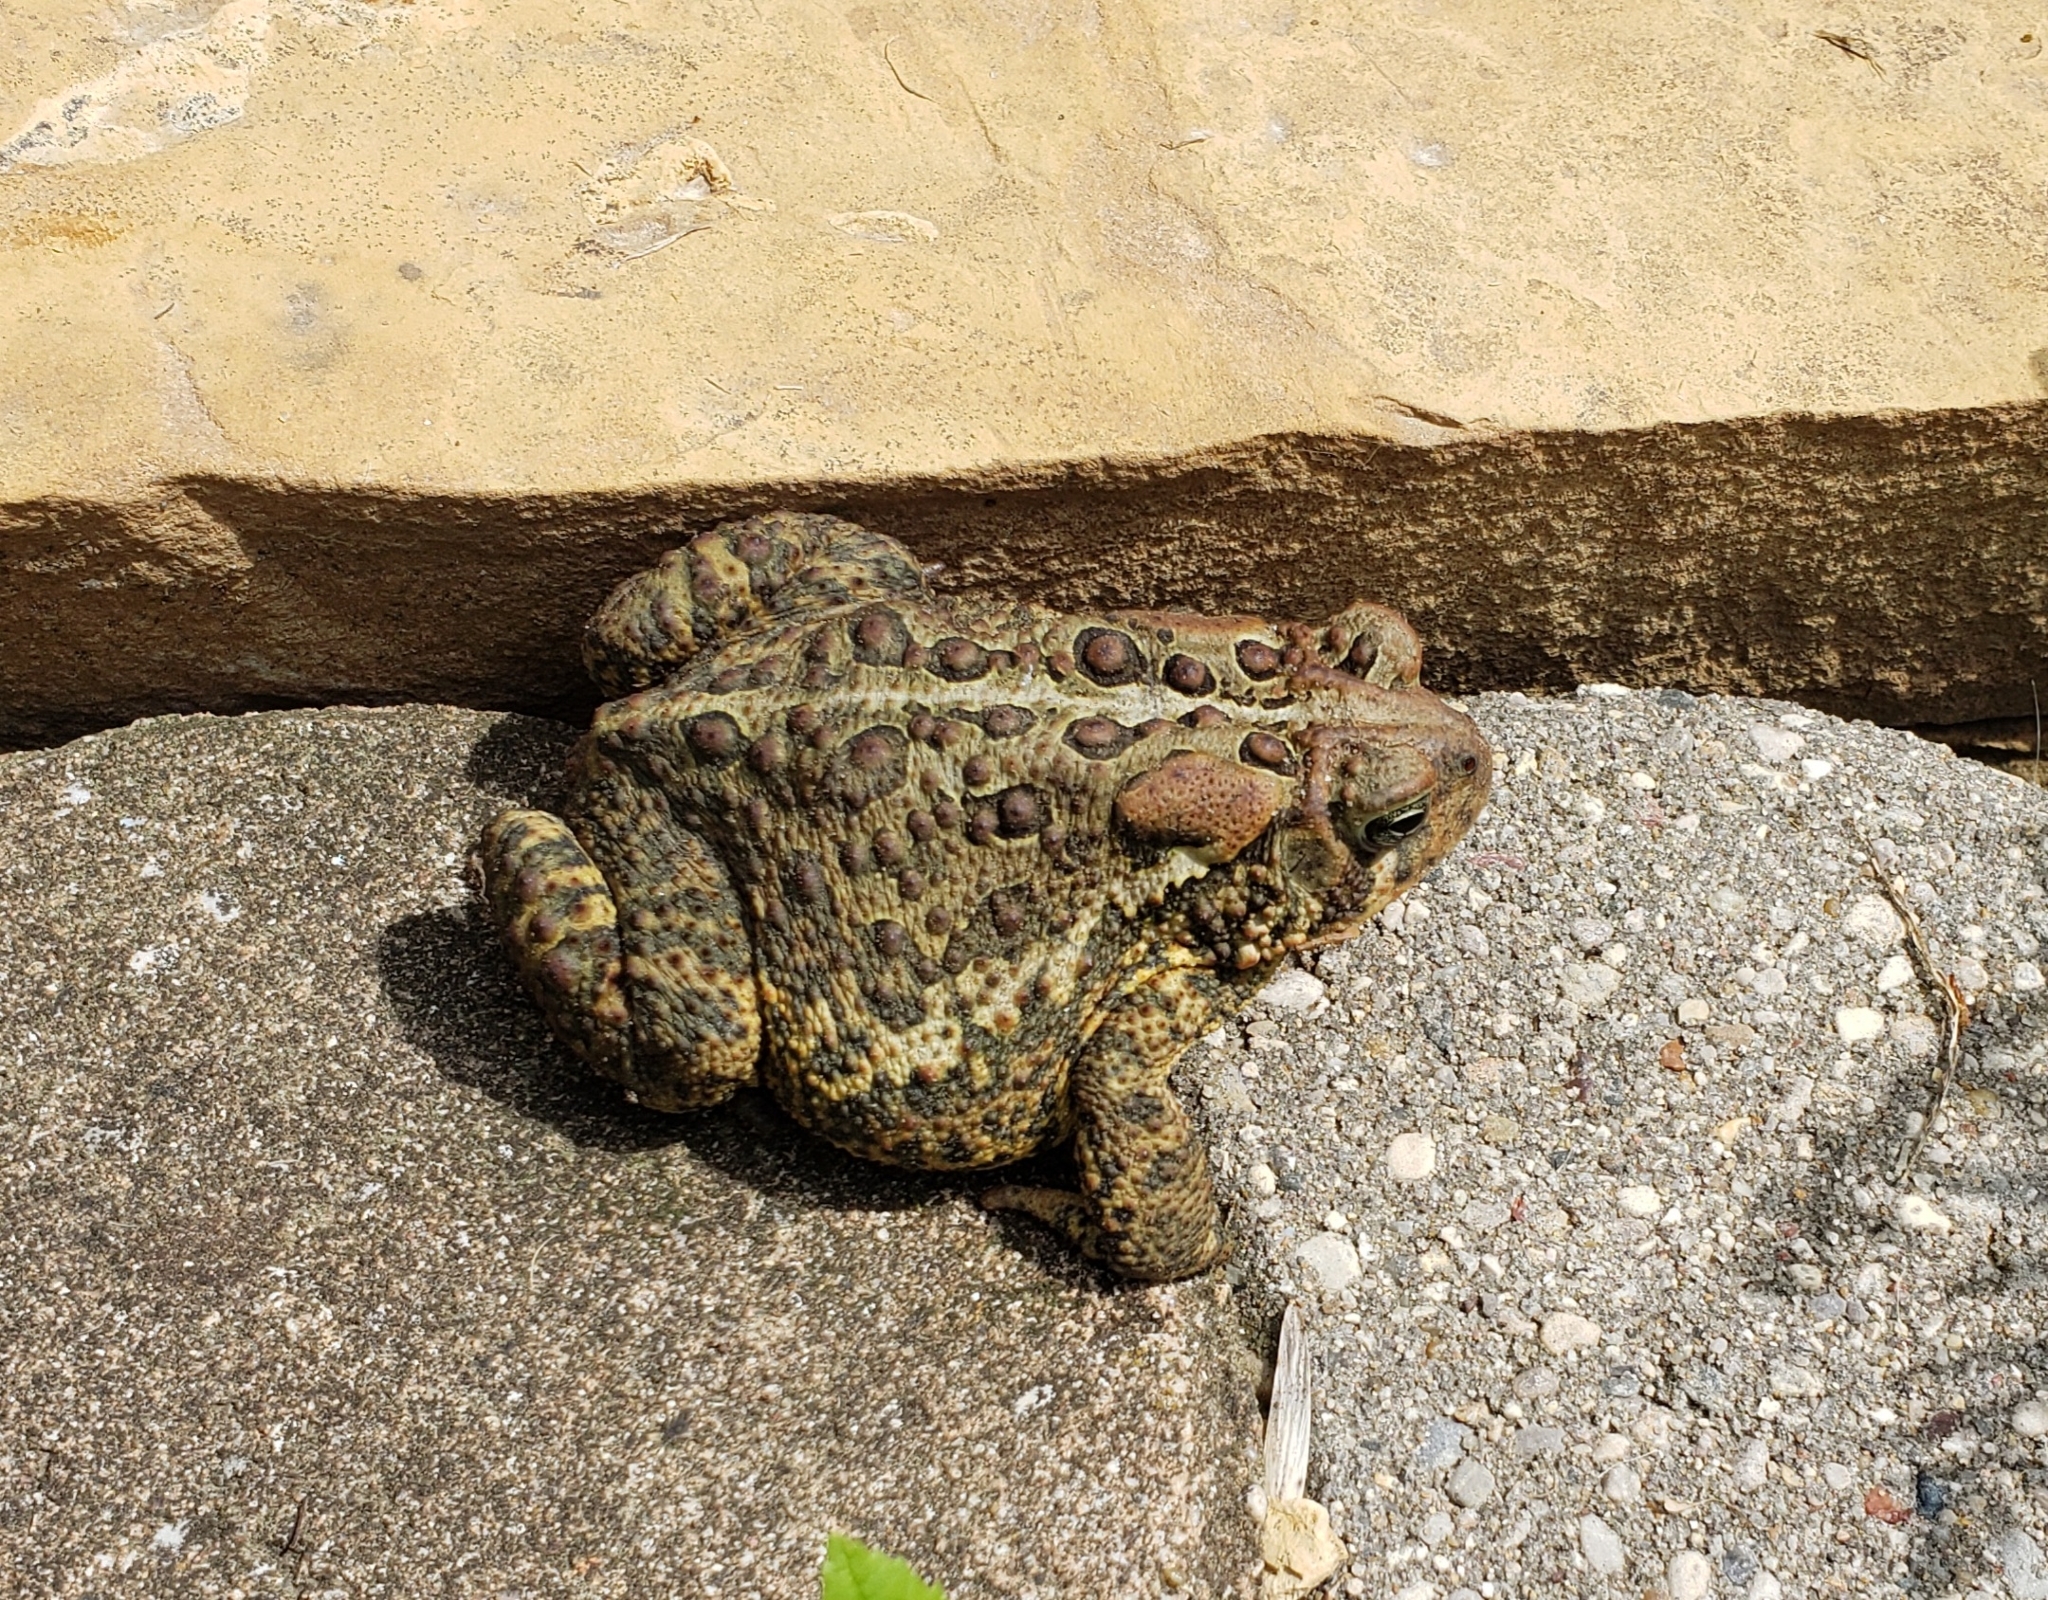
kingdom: Animalia
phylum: Chordata
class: Amphibia
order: Anura
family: Bufonidae
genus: Anaxyrus
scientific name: Anaxyrus americanus
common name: American toad
